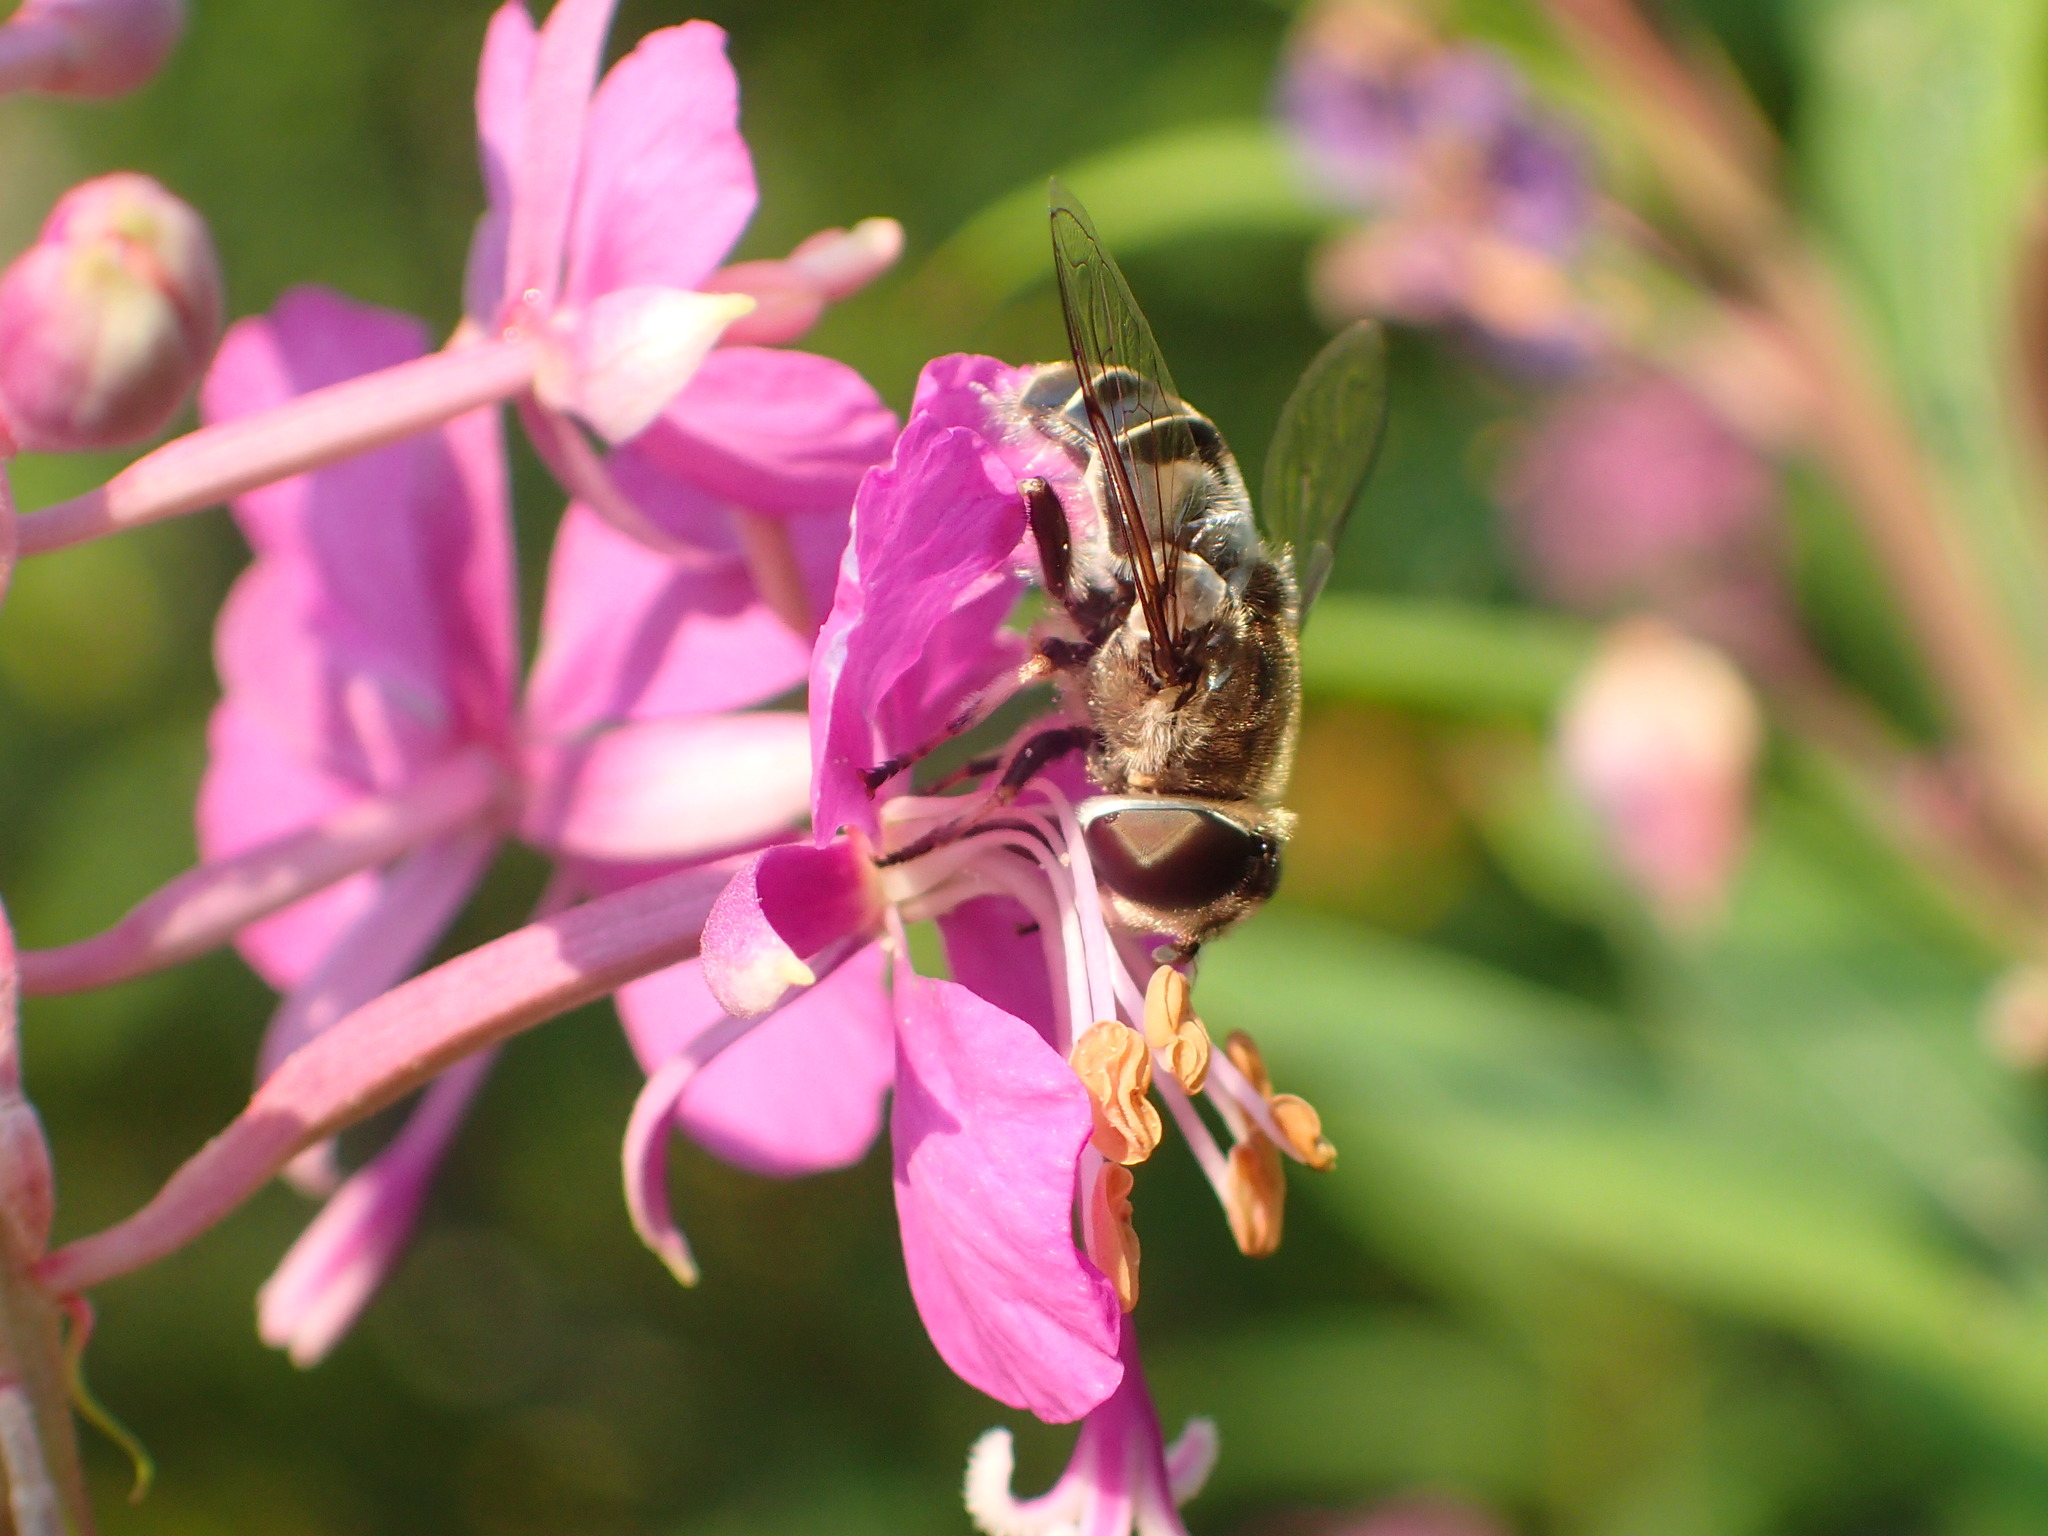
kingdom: Animalia
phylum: Arthropoda
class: Insecta
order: Diptera
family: Syrphidae
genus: Eristalis
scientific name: Eristalis dimidiata
